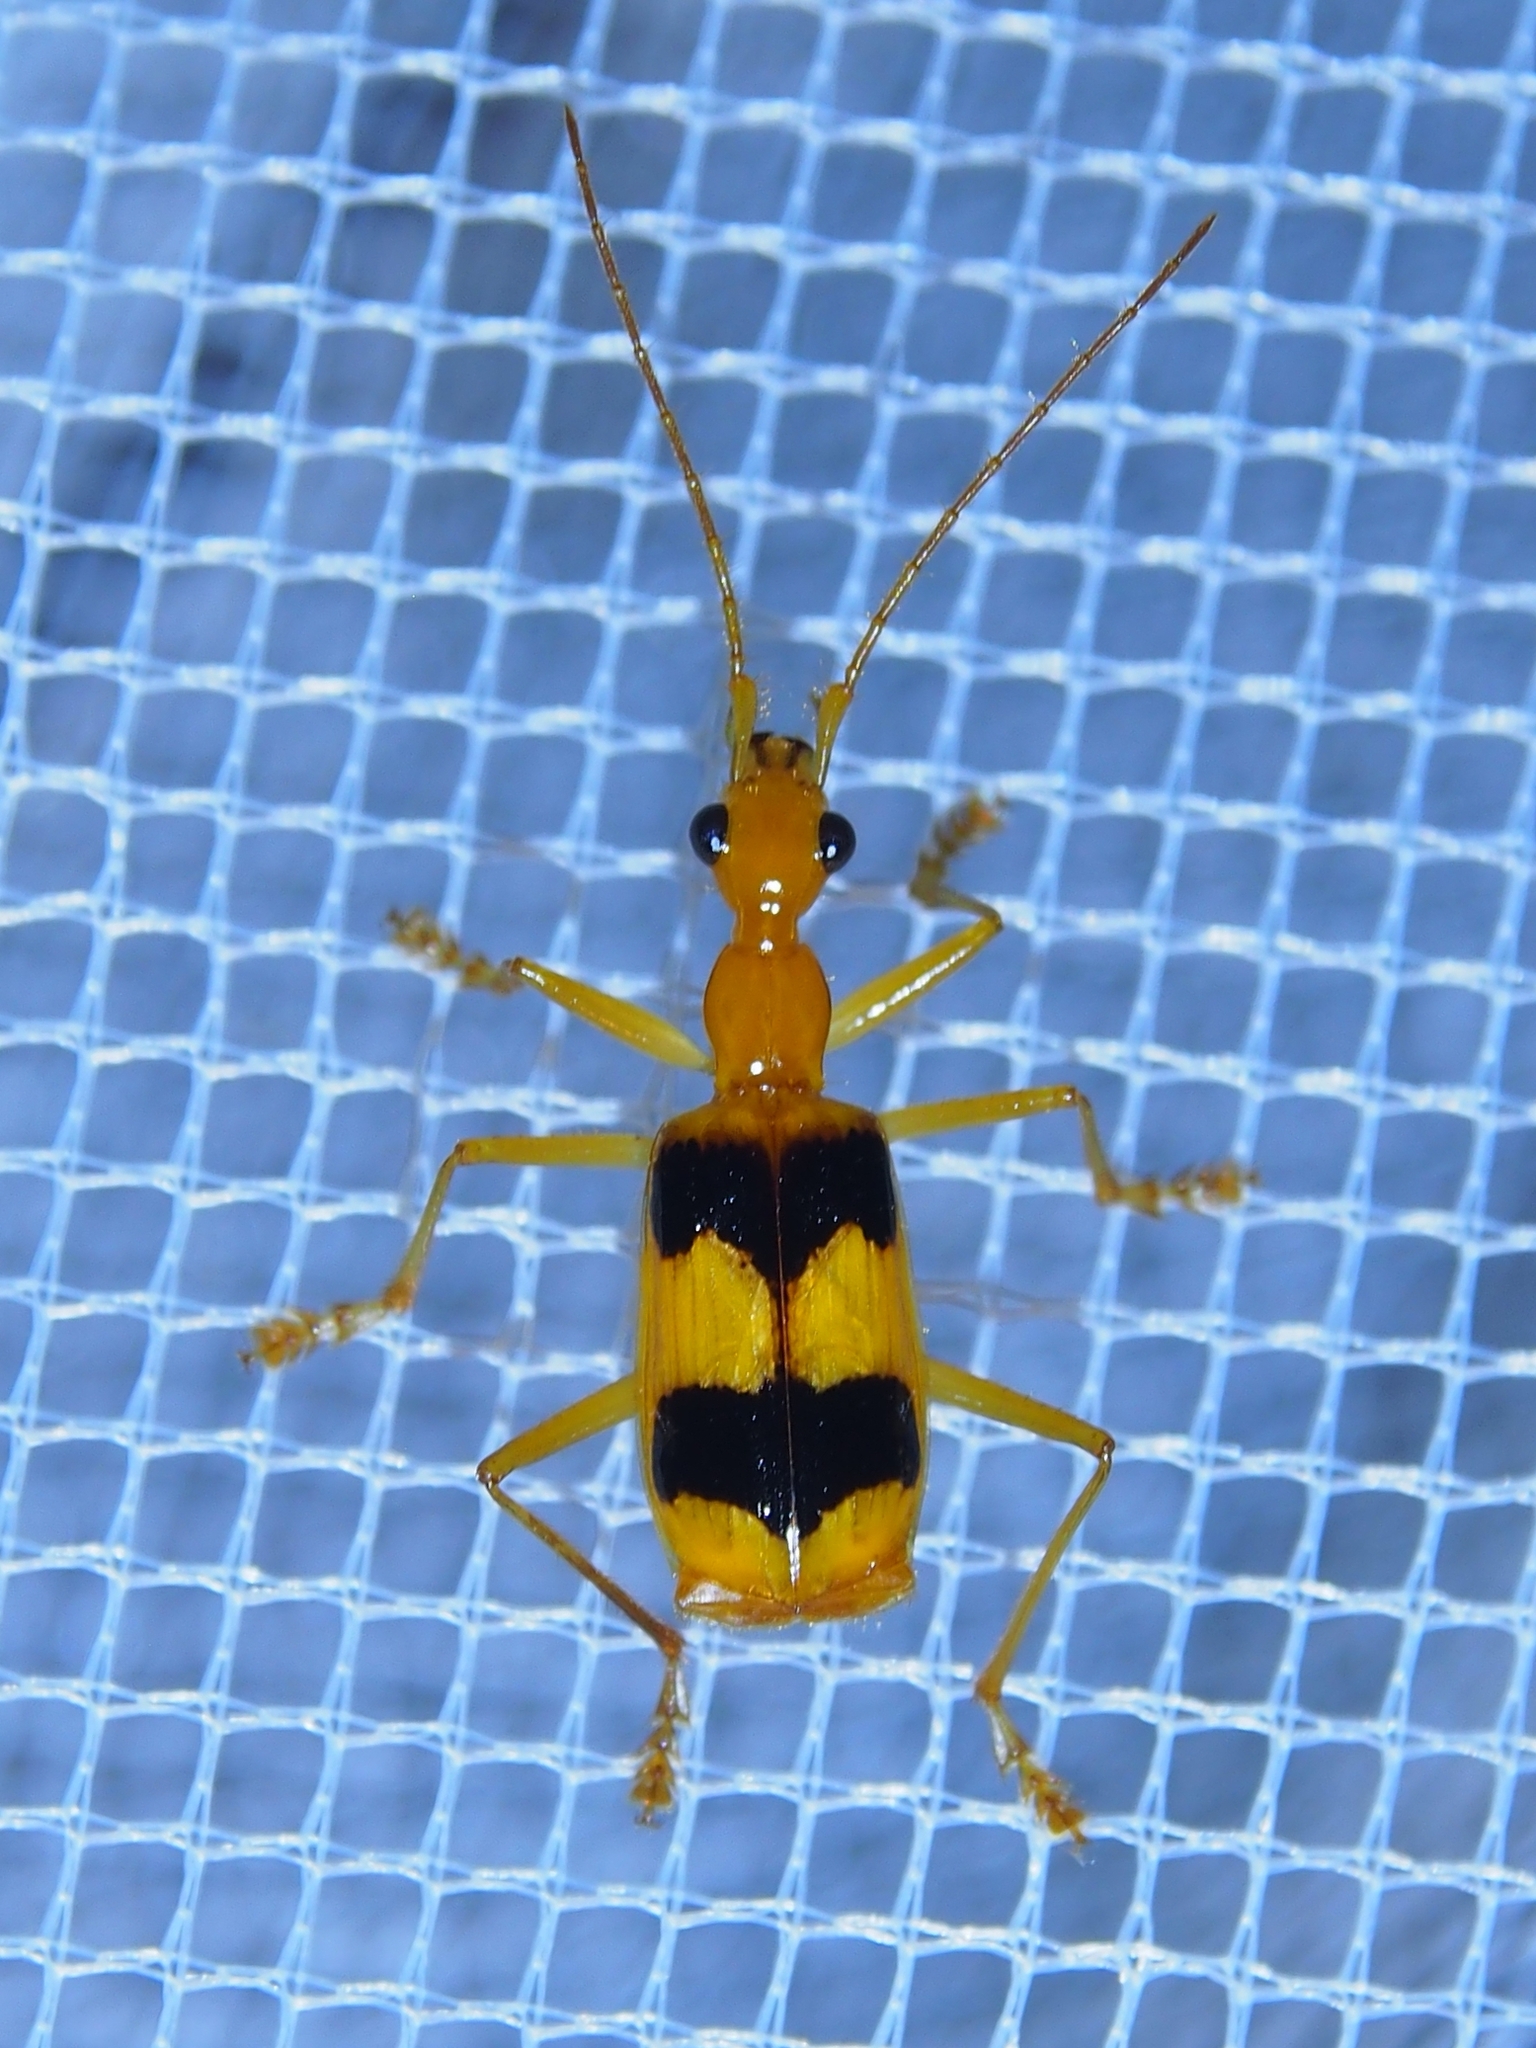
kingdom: Animalia
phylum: Arthropoda
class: Insecta
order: Coleoptera
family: Carabidae
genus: Calophaena
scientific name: Calophaena ligata
